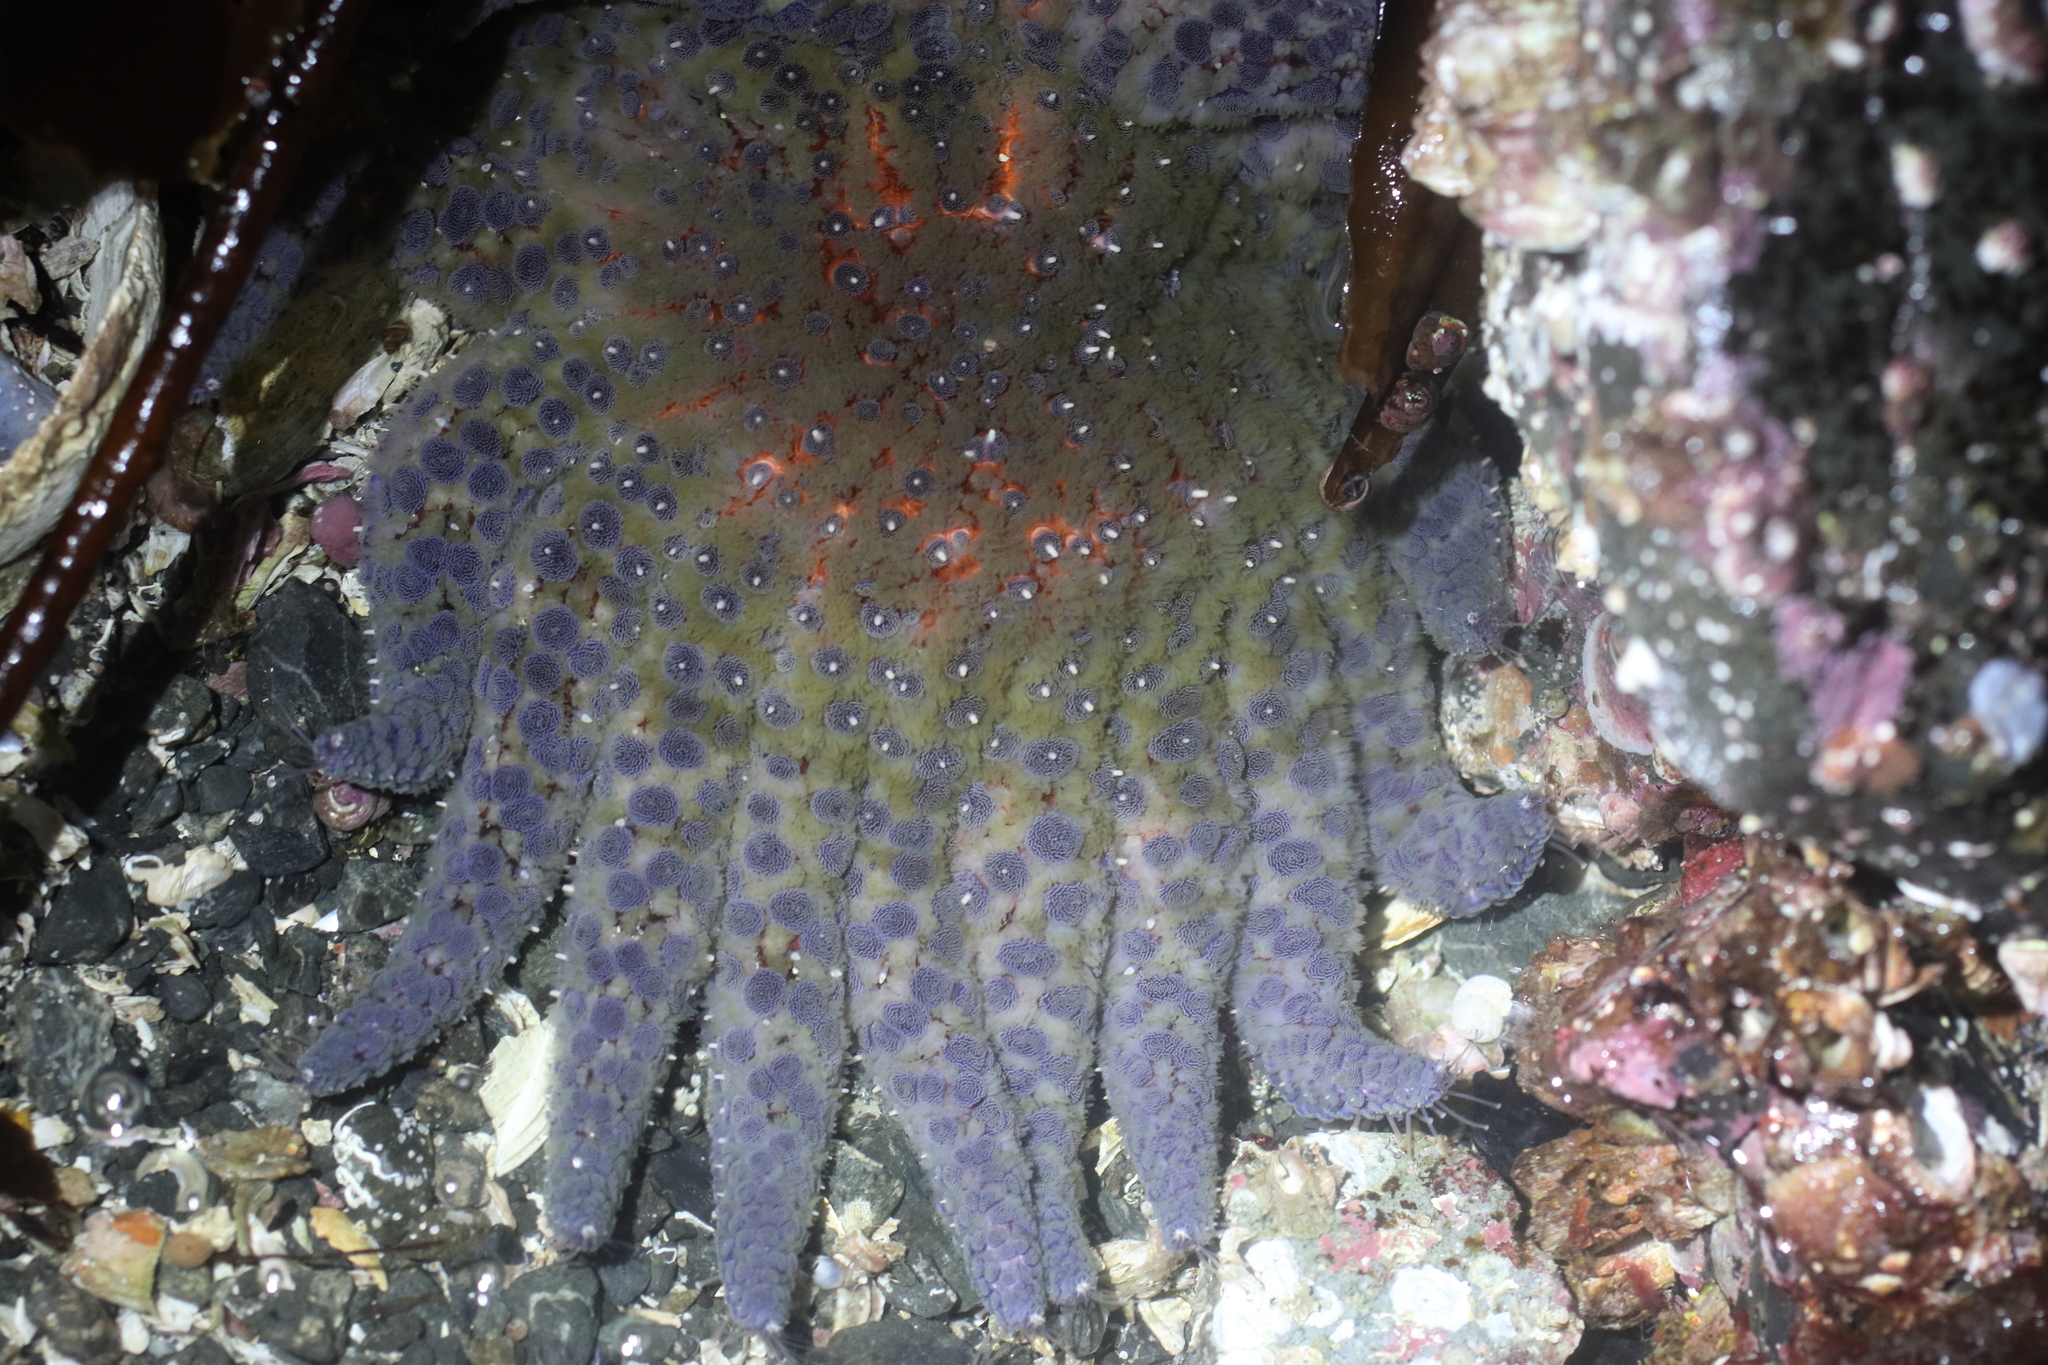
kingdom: Animalia
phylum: Echinodermata
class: Asteroidea
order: Forcipulatida
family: Asteriidae
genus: Pycnopodia
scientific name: Pycnopodia helianthoides
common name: Rag mop
